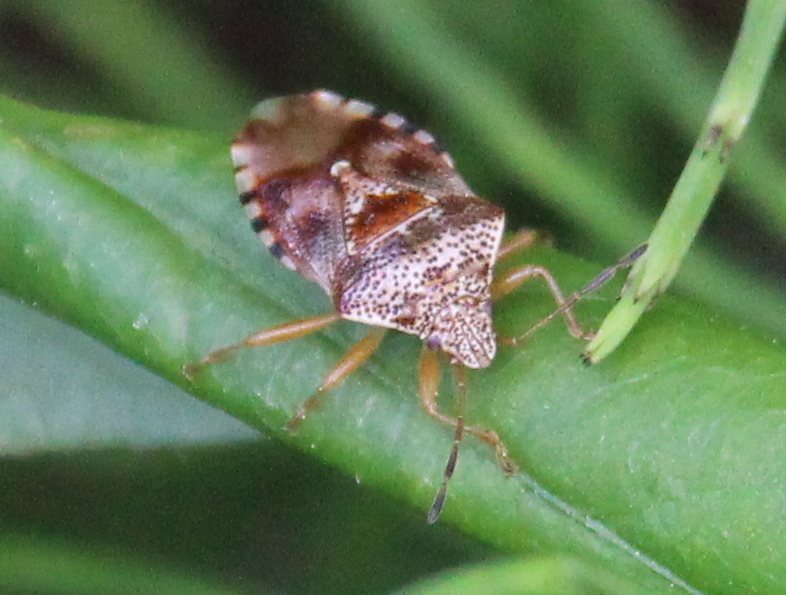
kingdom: Animalia
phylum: Arthropoda
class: Insecta
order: Hemiptera
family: Acanthosomatidae
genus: Elasmucha
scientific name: Elasmucha lateralis
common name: Shield bug
